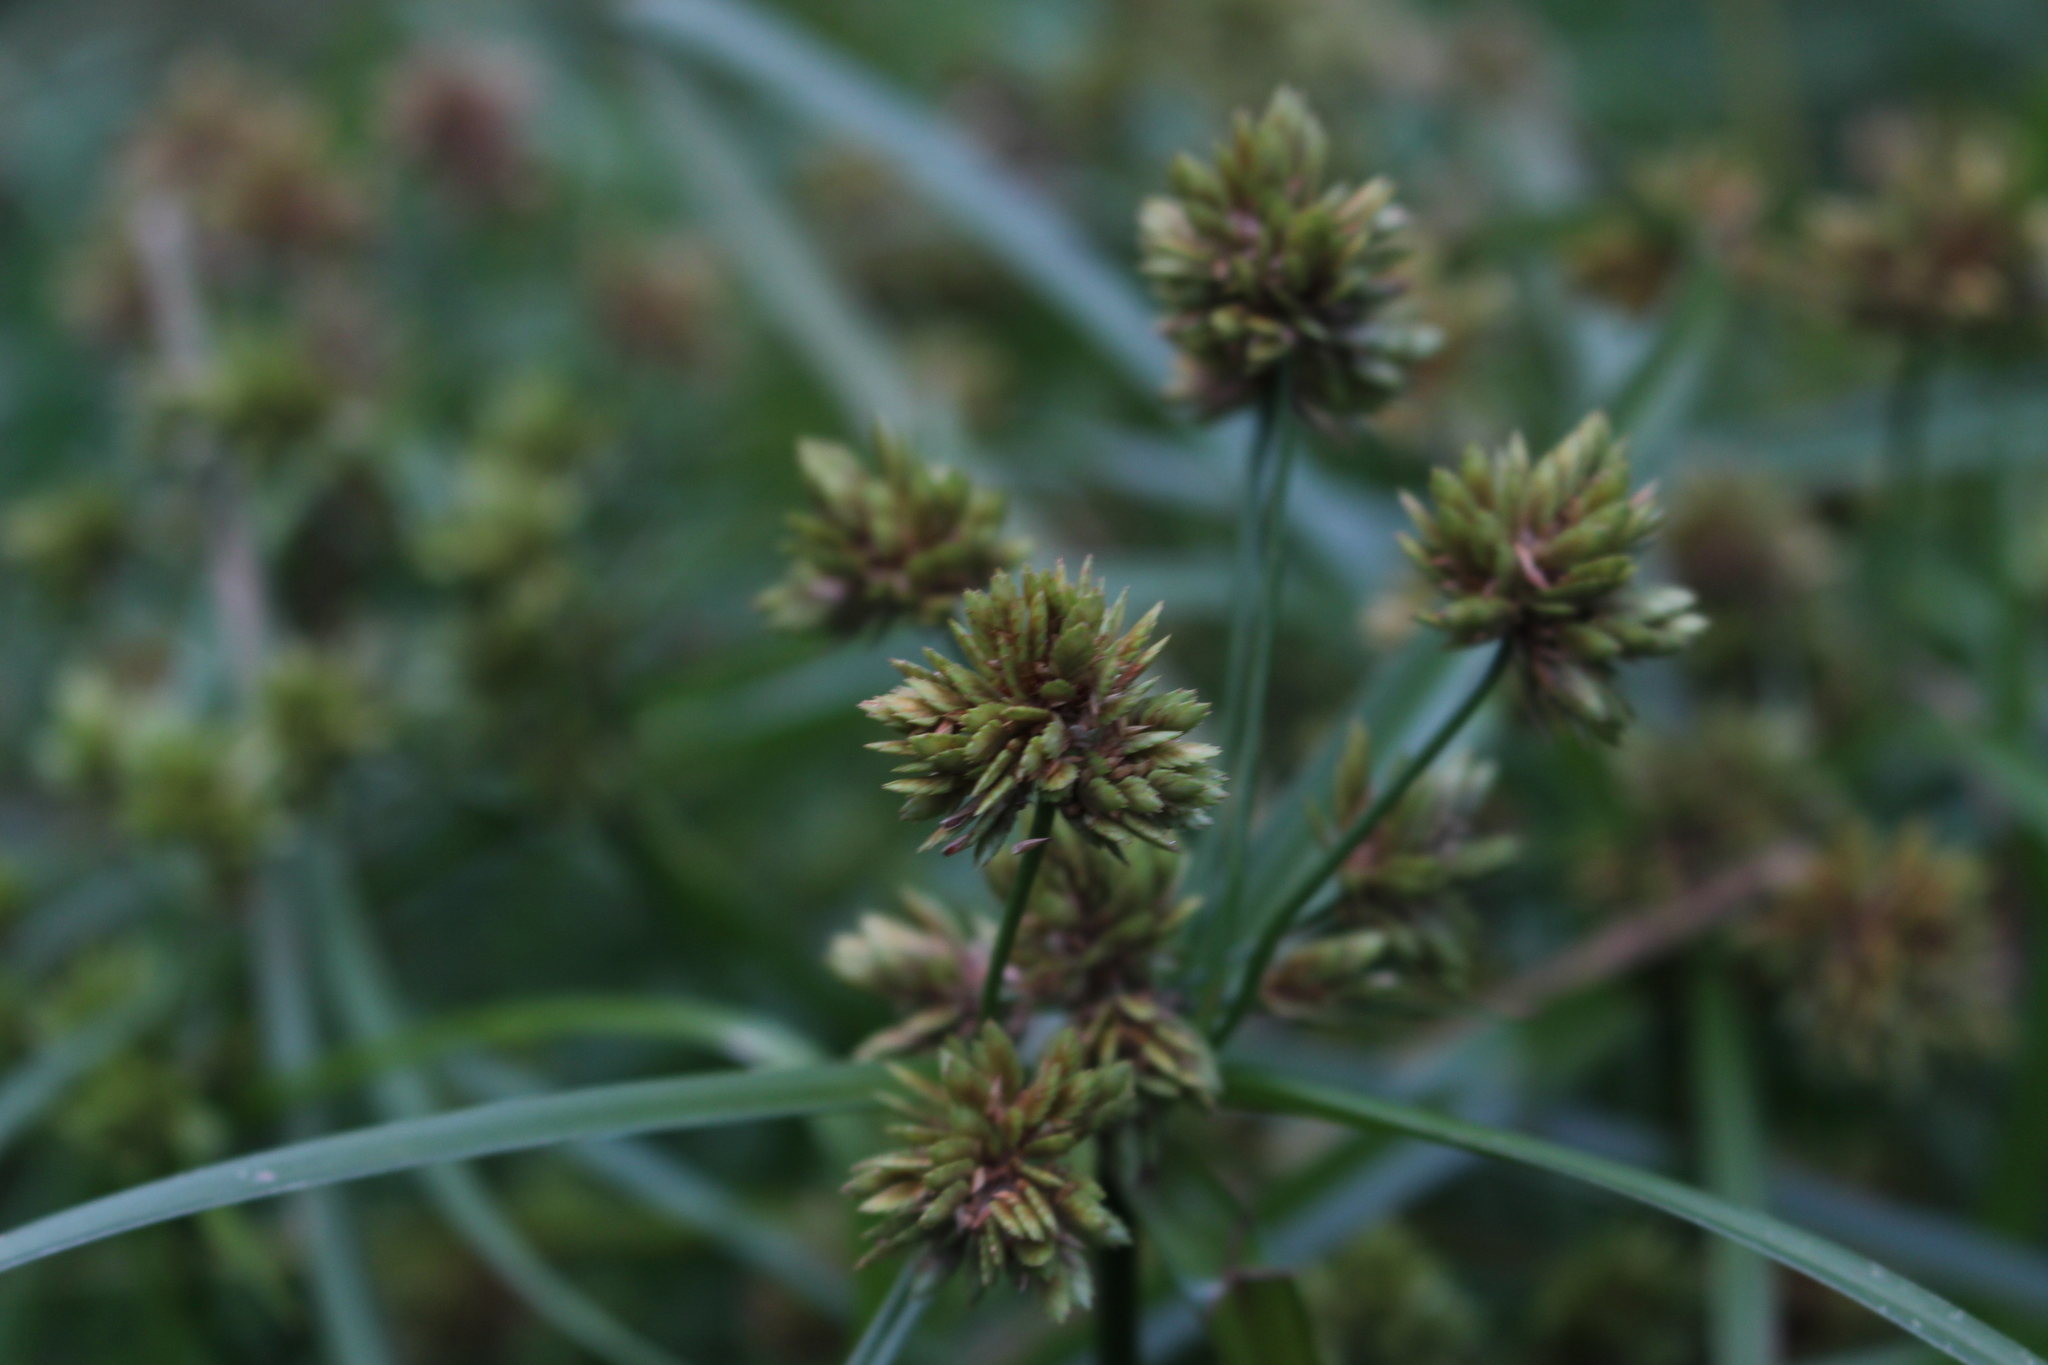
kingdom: Plantae
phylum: Tracheophyta
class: Liliopsida
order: Poales
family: Cyperaceae
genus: Cyperus
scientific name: Cyperus eragrostis
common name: Tall flatsedge
